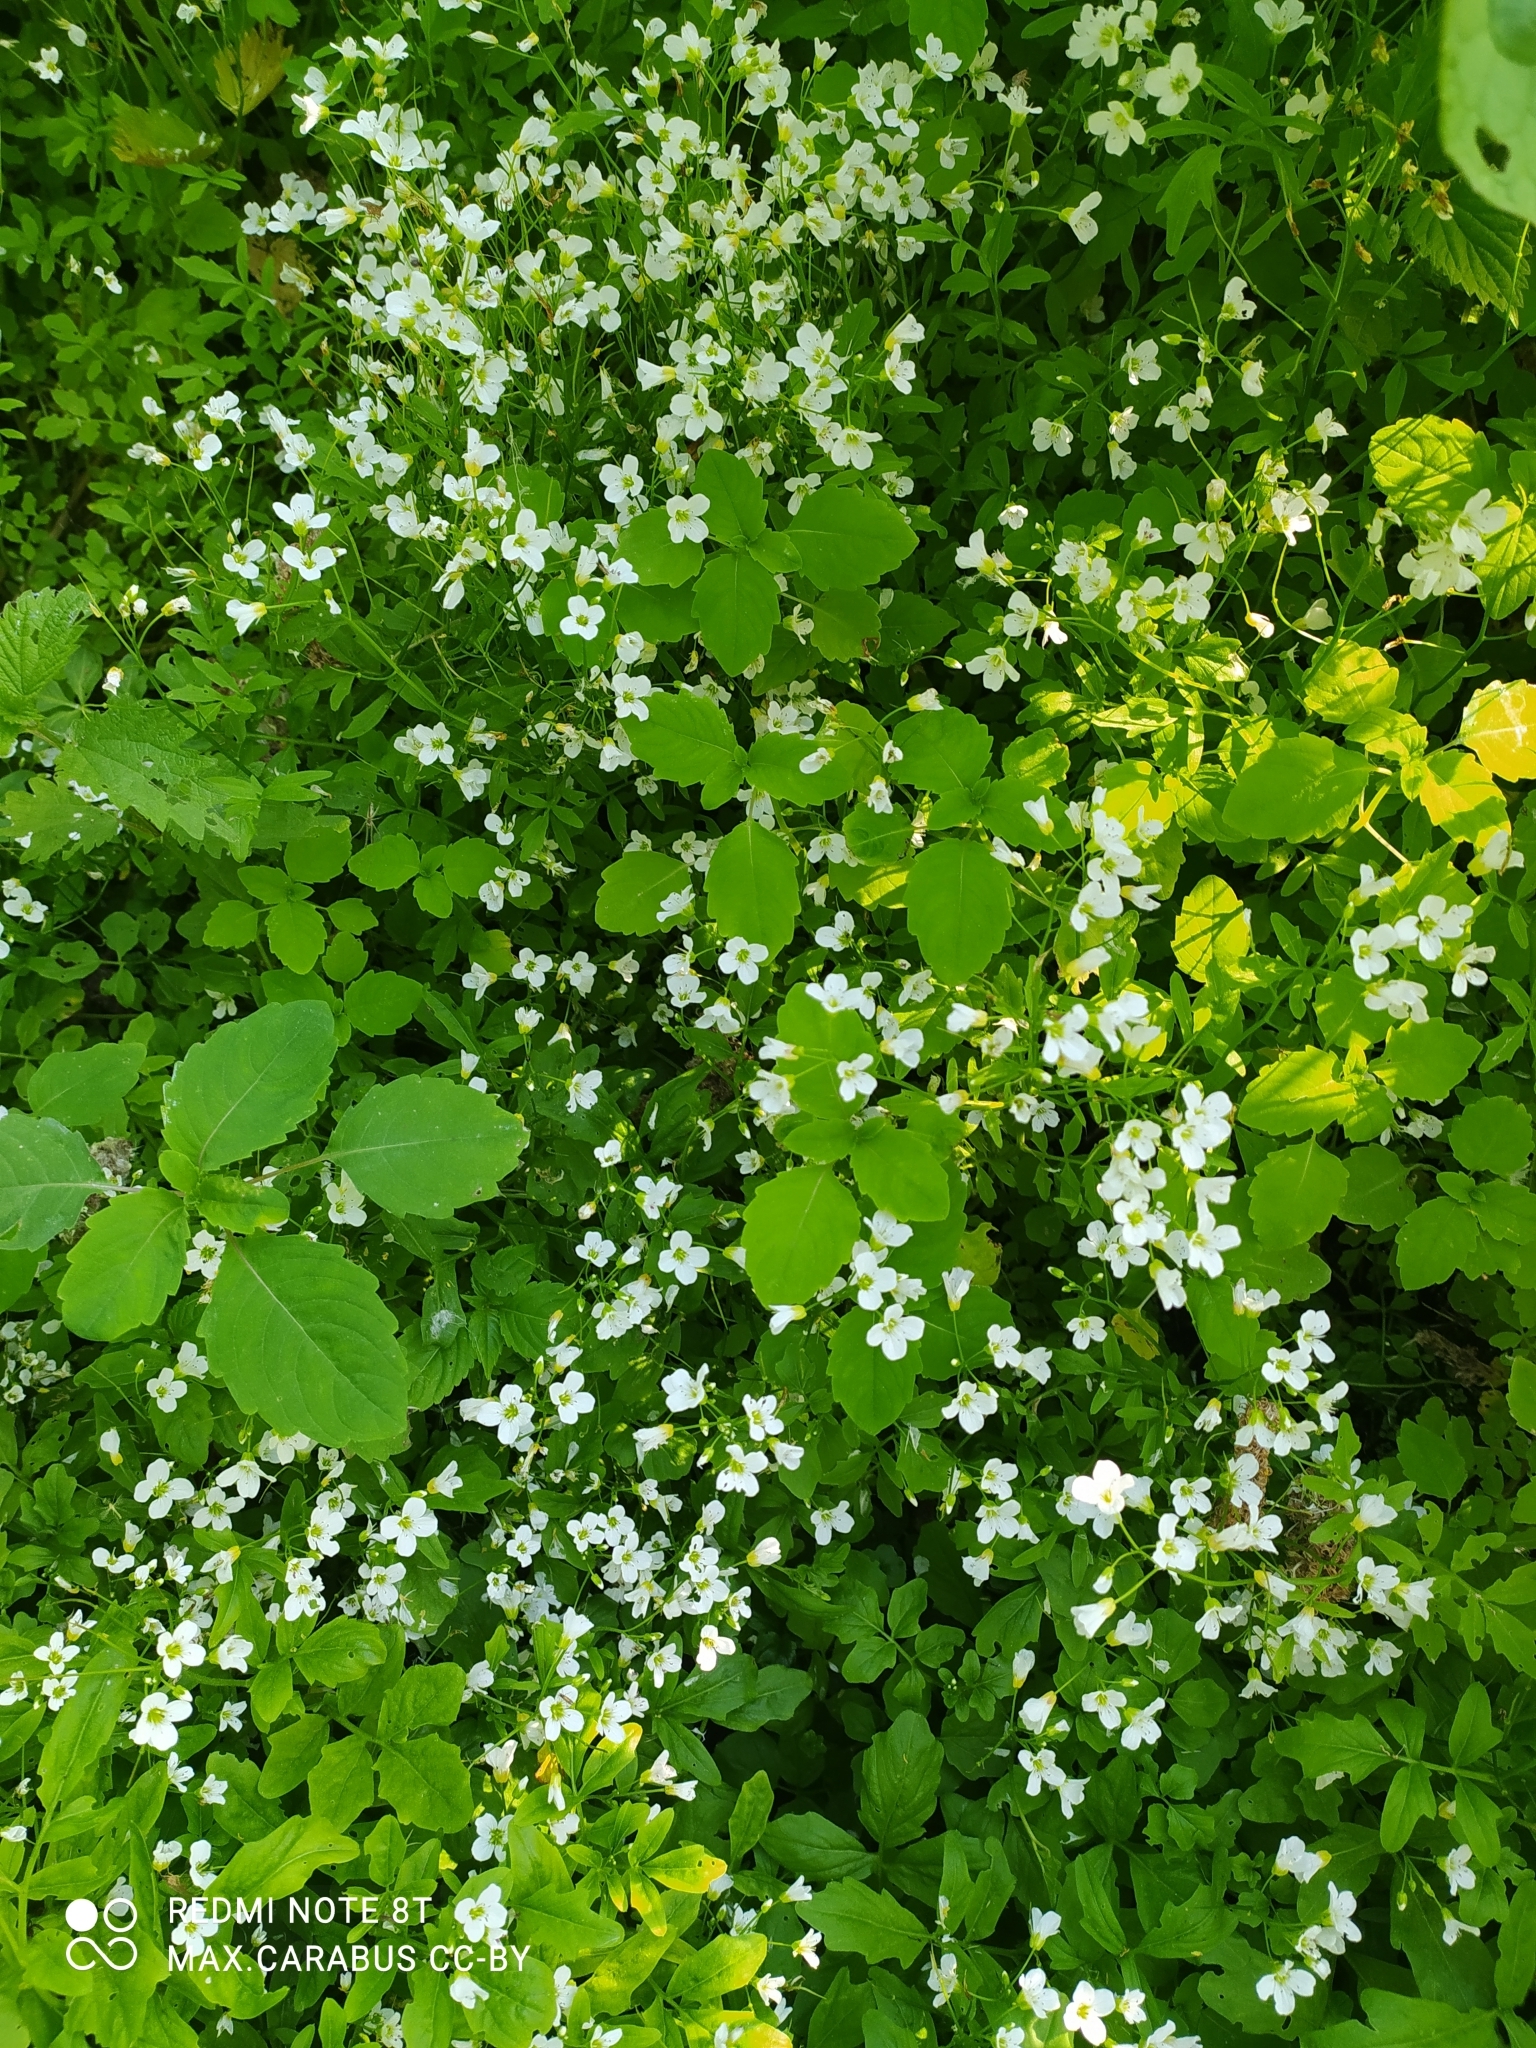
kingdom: Plantae
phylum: Tracheophyta
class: Magnoliopsida
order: Brassicales
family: Brassicaceae
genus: Cardamine
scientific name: Cardamine amara
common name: Large bitter-cress
